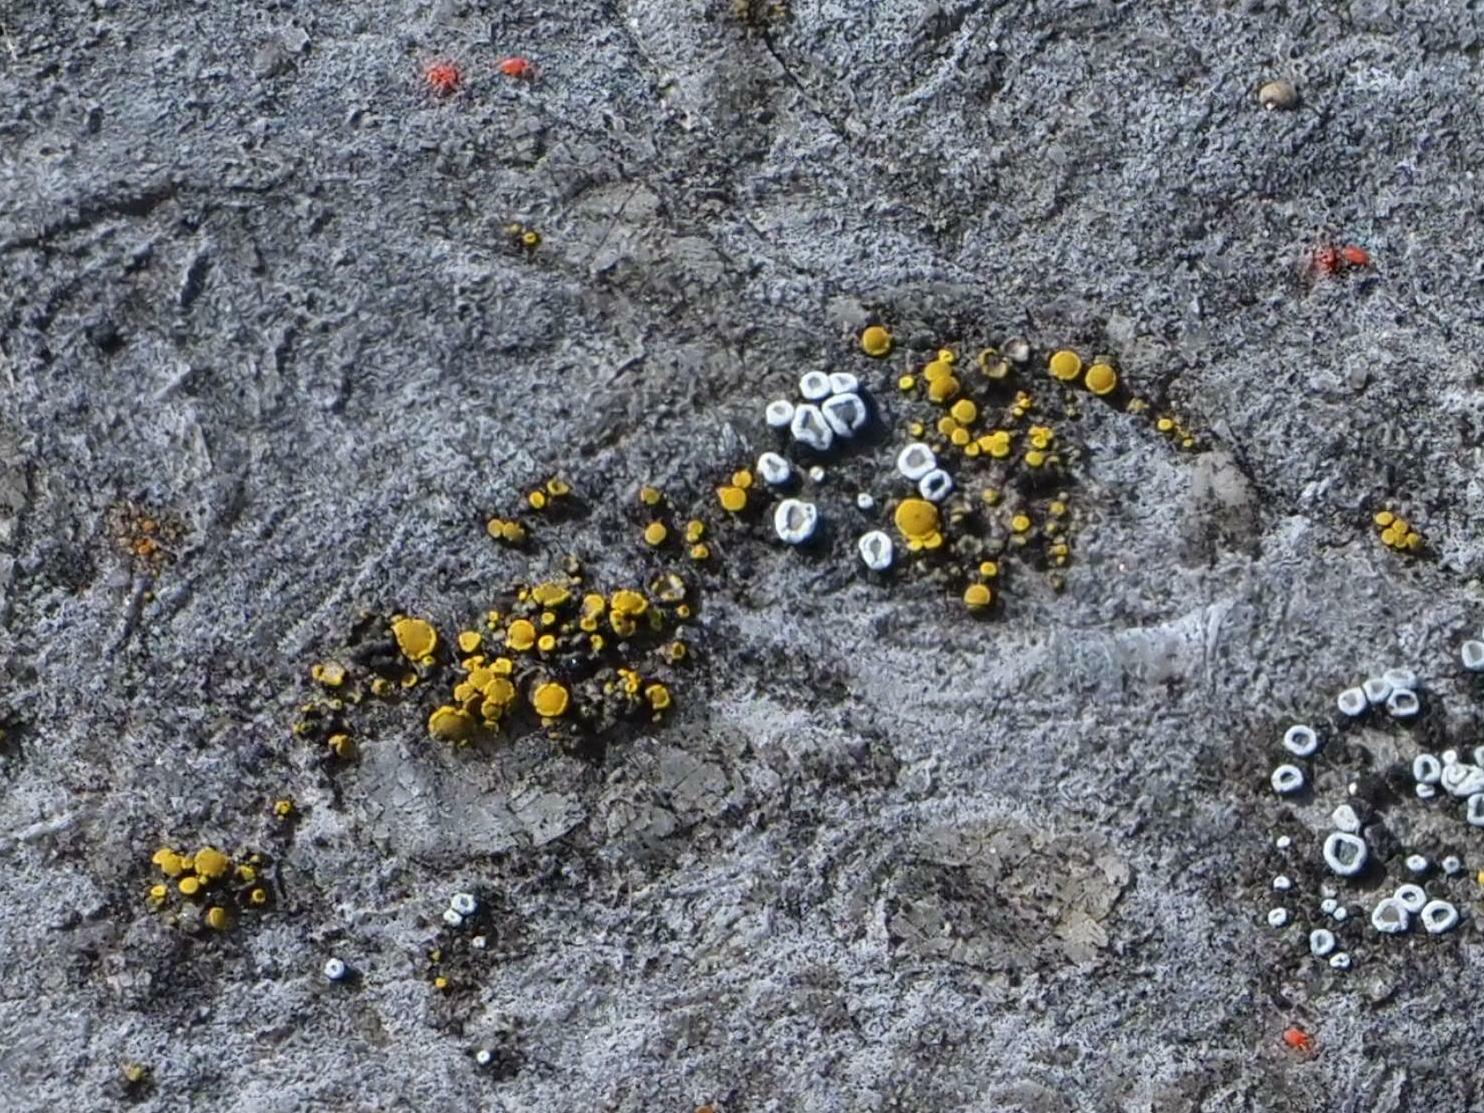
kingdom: Fungi
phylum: Ascomycota
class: Candelariomycetes
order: Candelariales
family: Candelariaceae
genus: Candelariella
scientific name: Candelariella aurella
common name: Hidden goldspeck lichen
